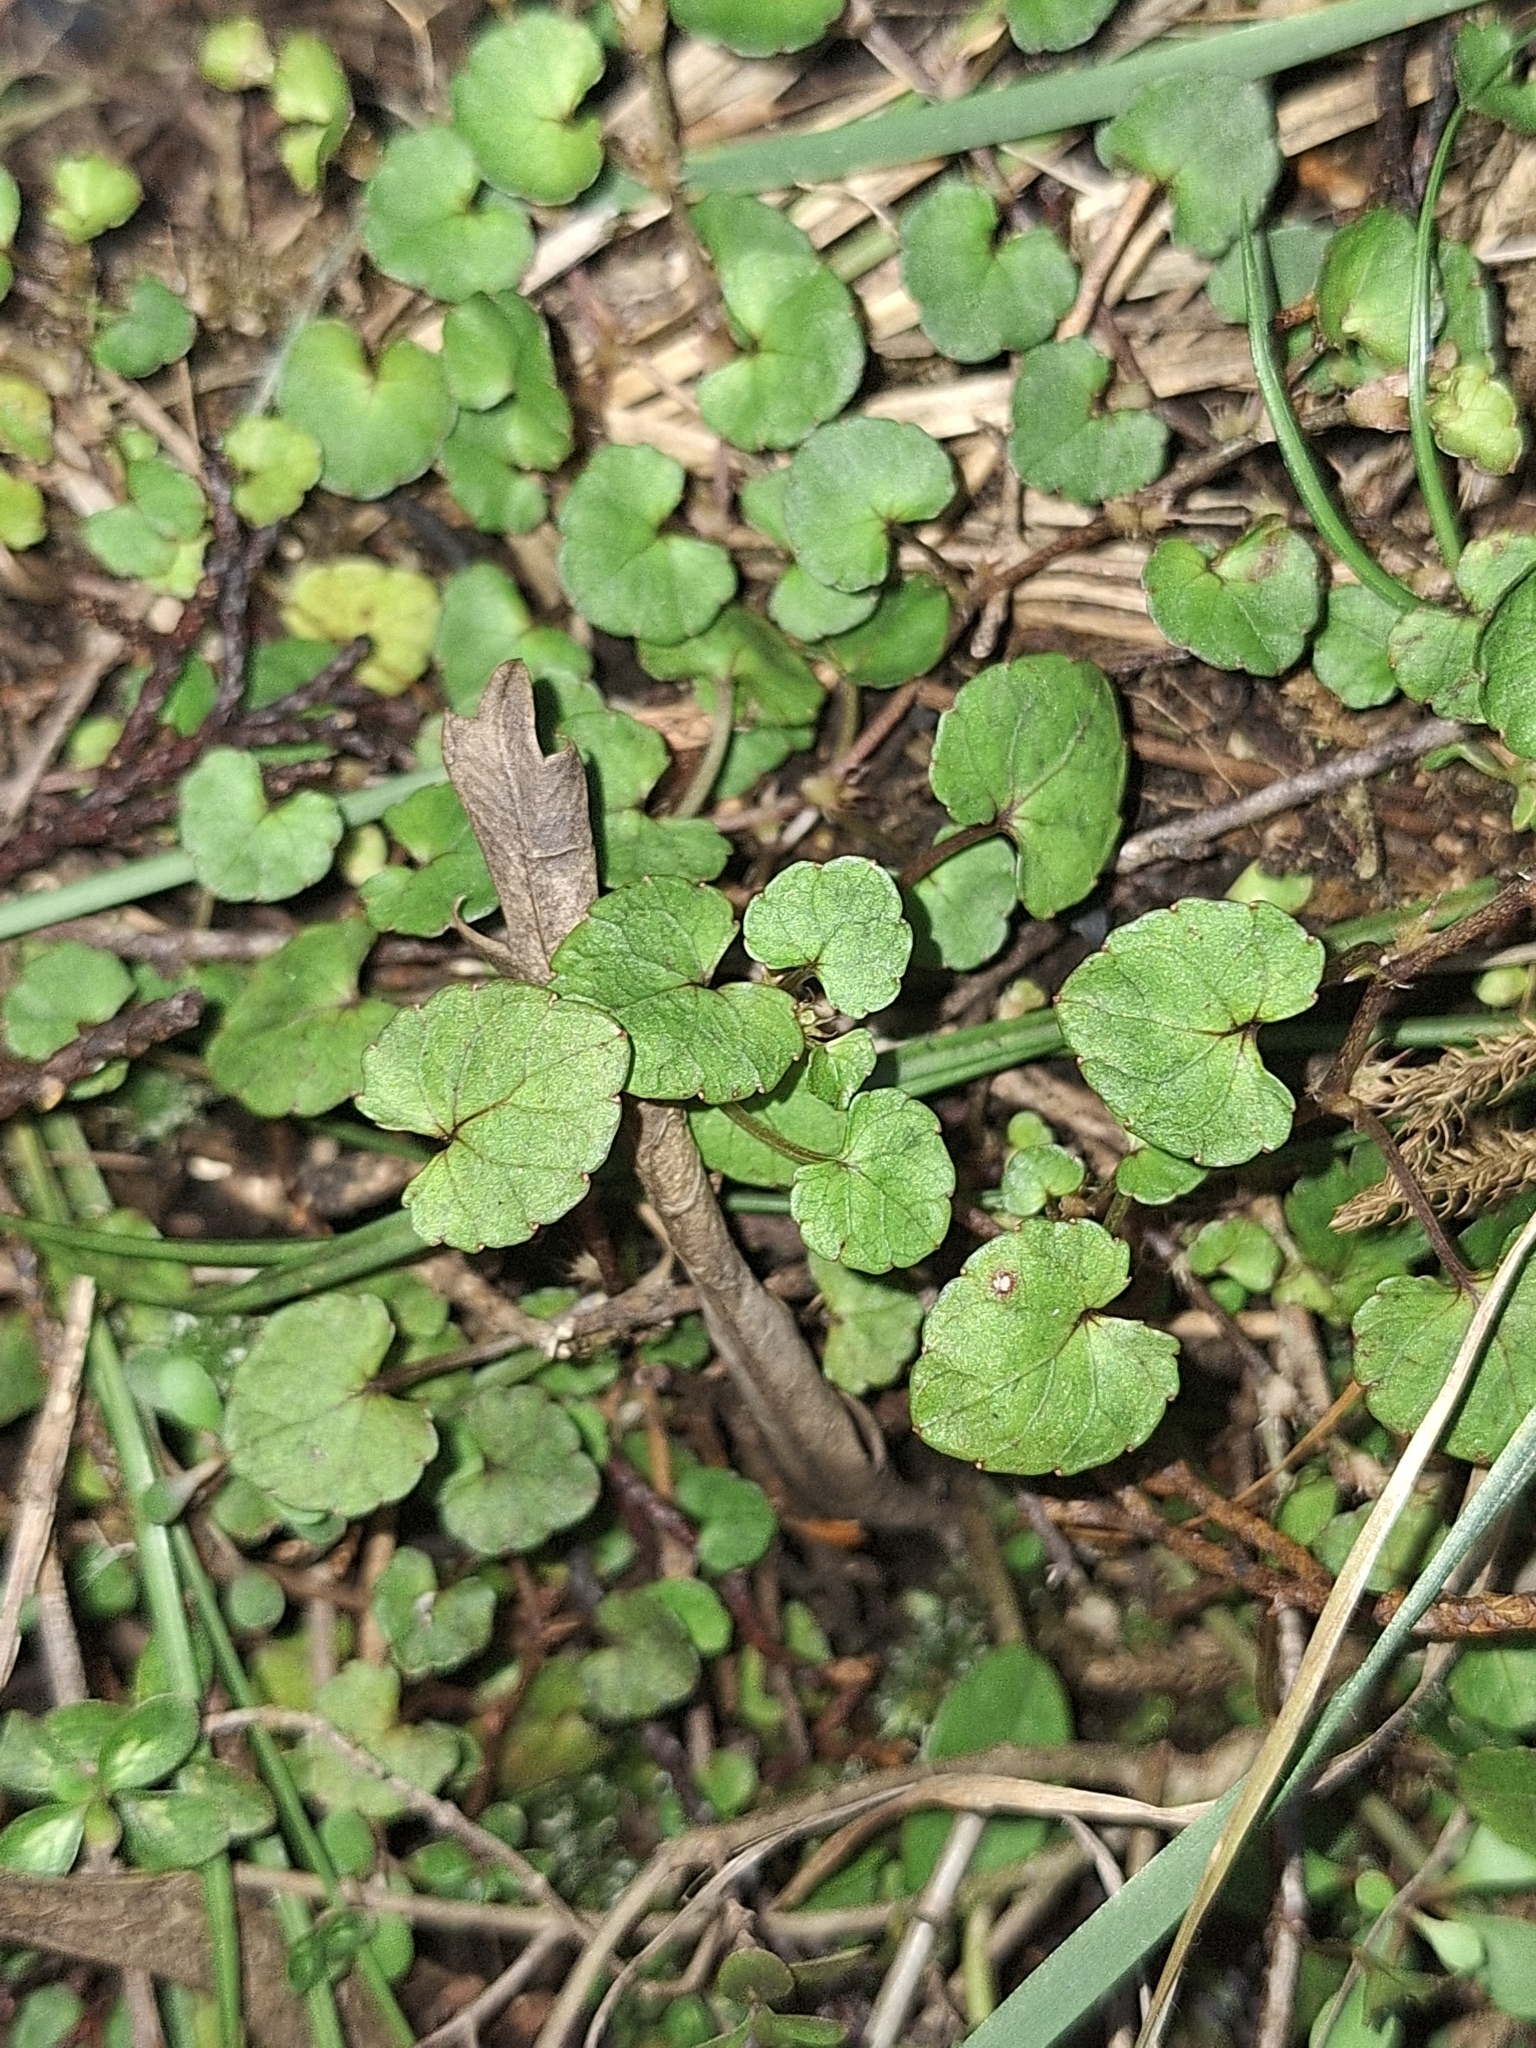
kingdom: Plantae
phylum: Tracheophyta
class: Magnoliopsida
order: Malpighiales
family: Violaceae
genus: Viola
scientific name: Viola filicaulis
